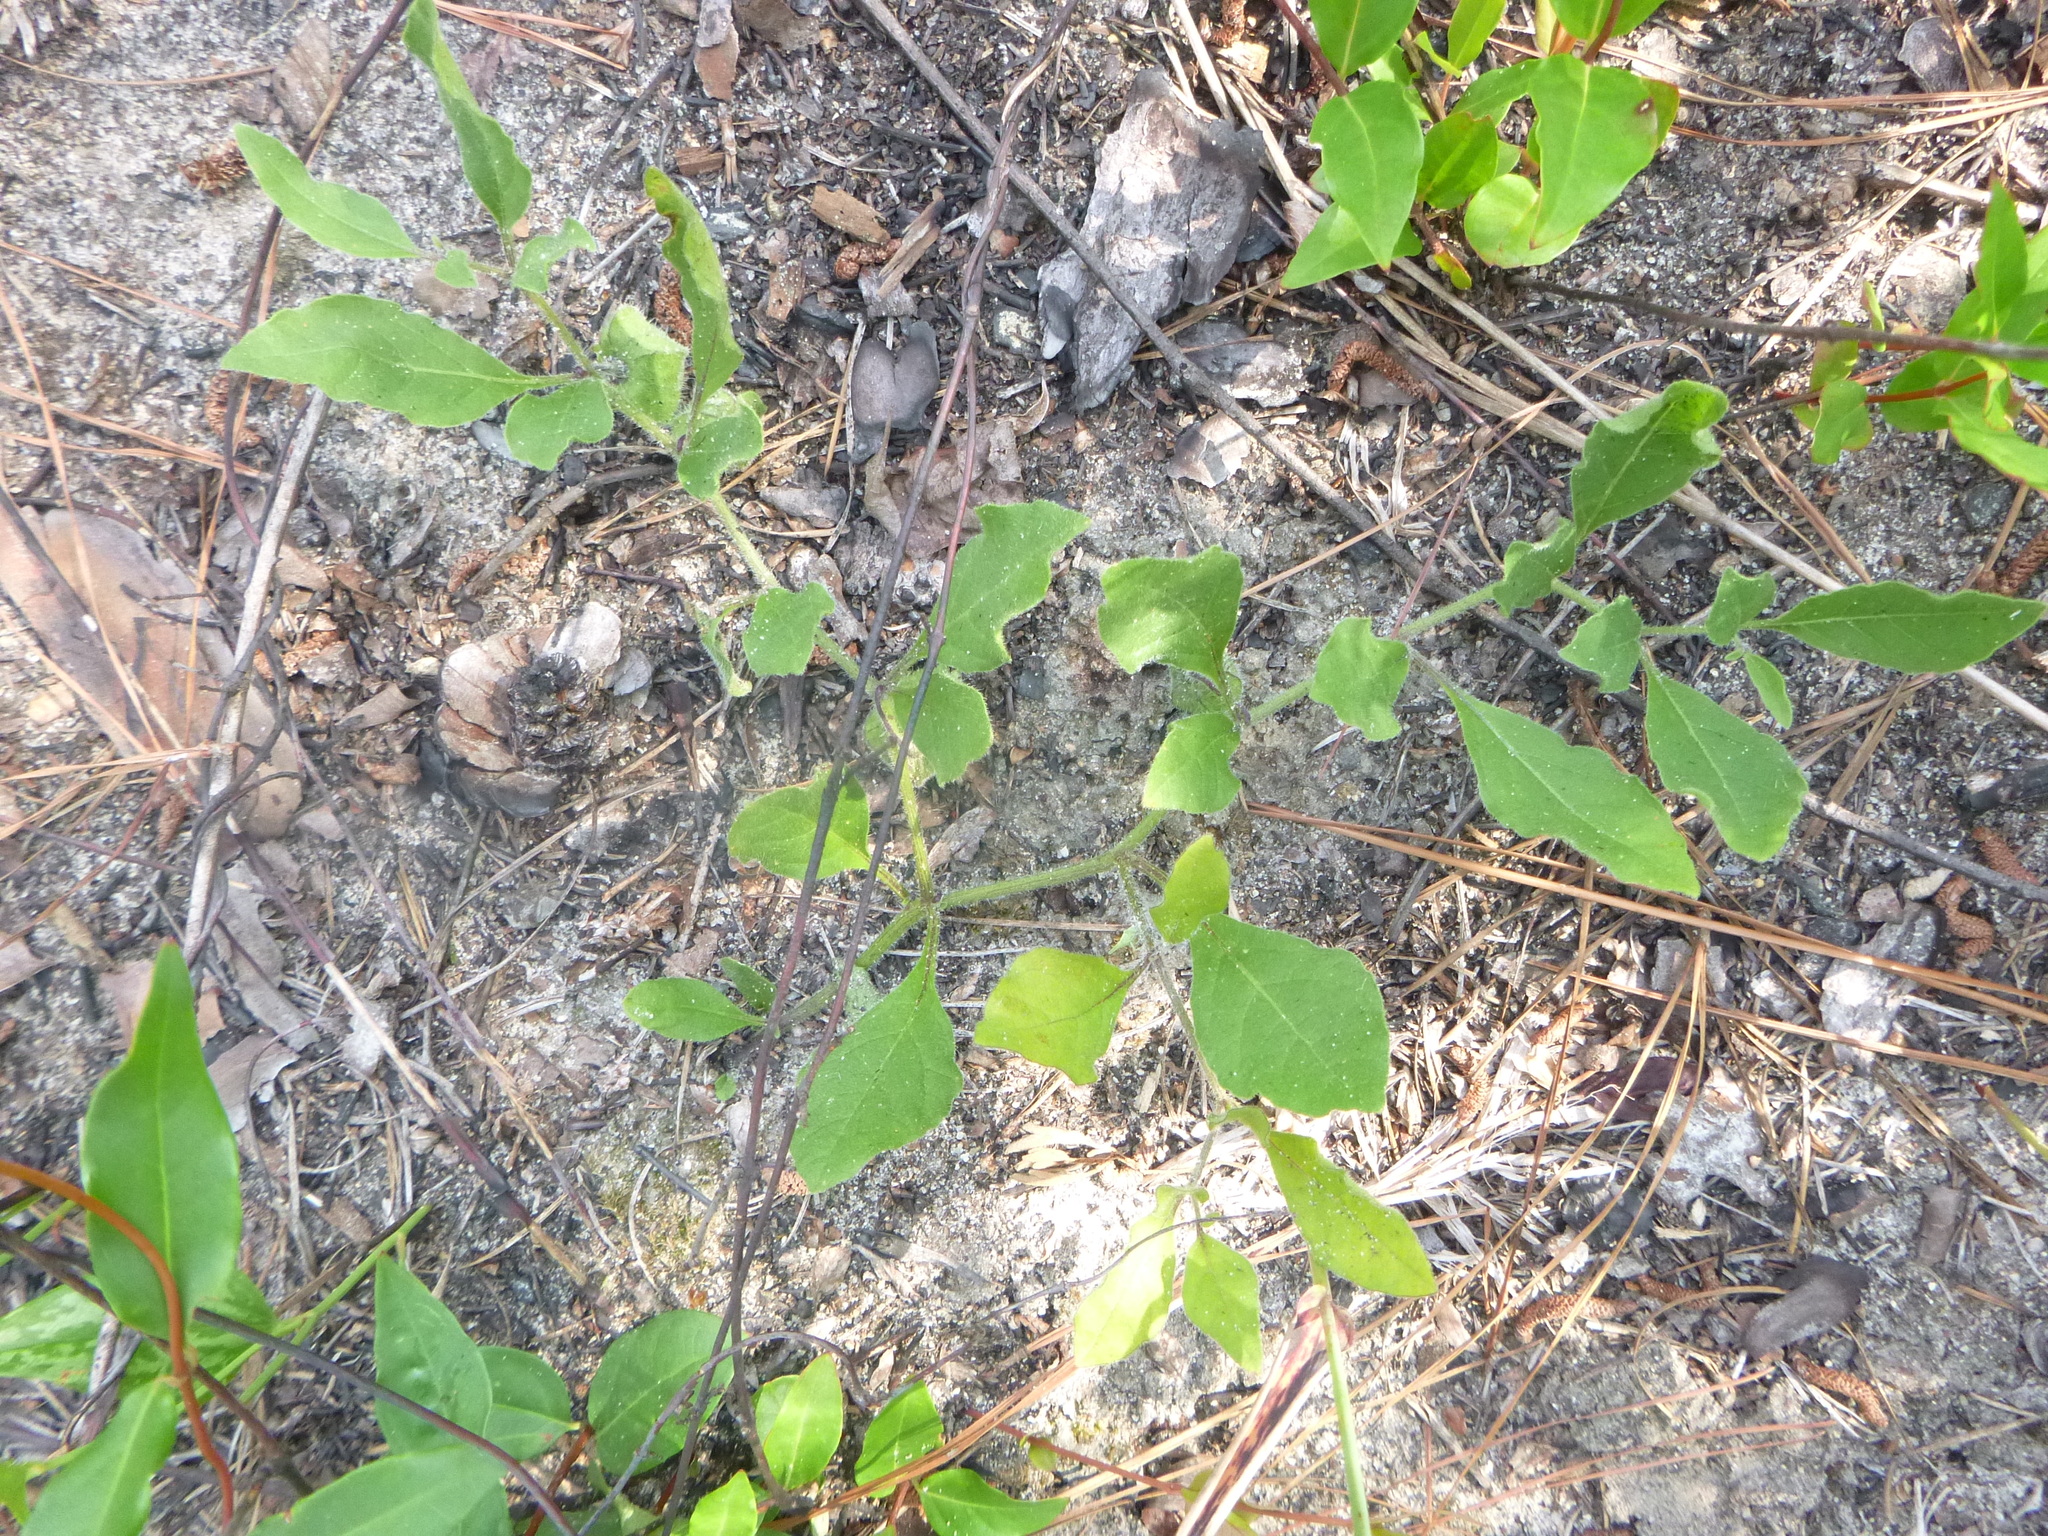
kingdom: Plantae
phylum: Tracheophyta
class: Magnoliopsida
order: Solanales
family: Solanaceae
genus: Physalis
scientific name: Physalis lanceolata
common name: Lance-leaved ground-cherry
